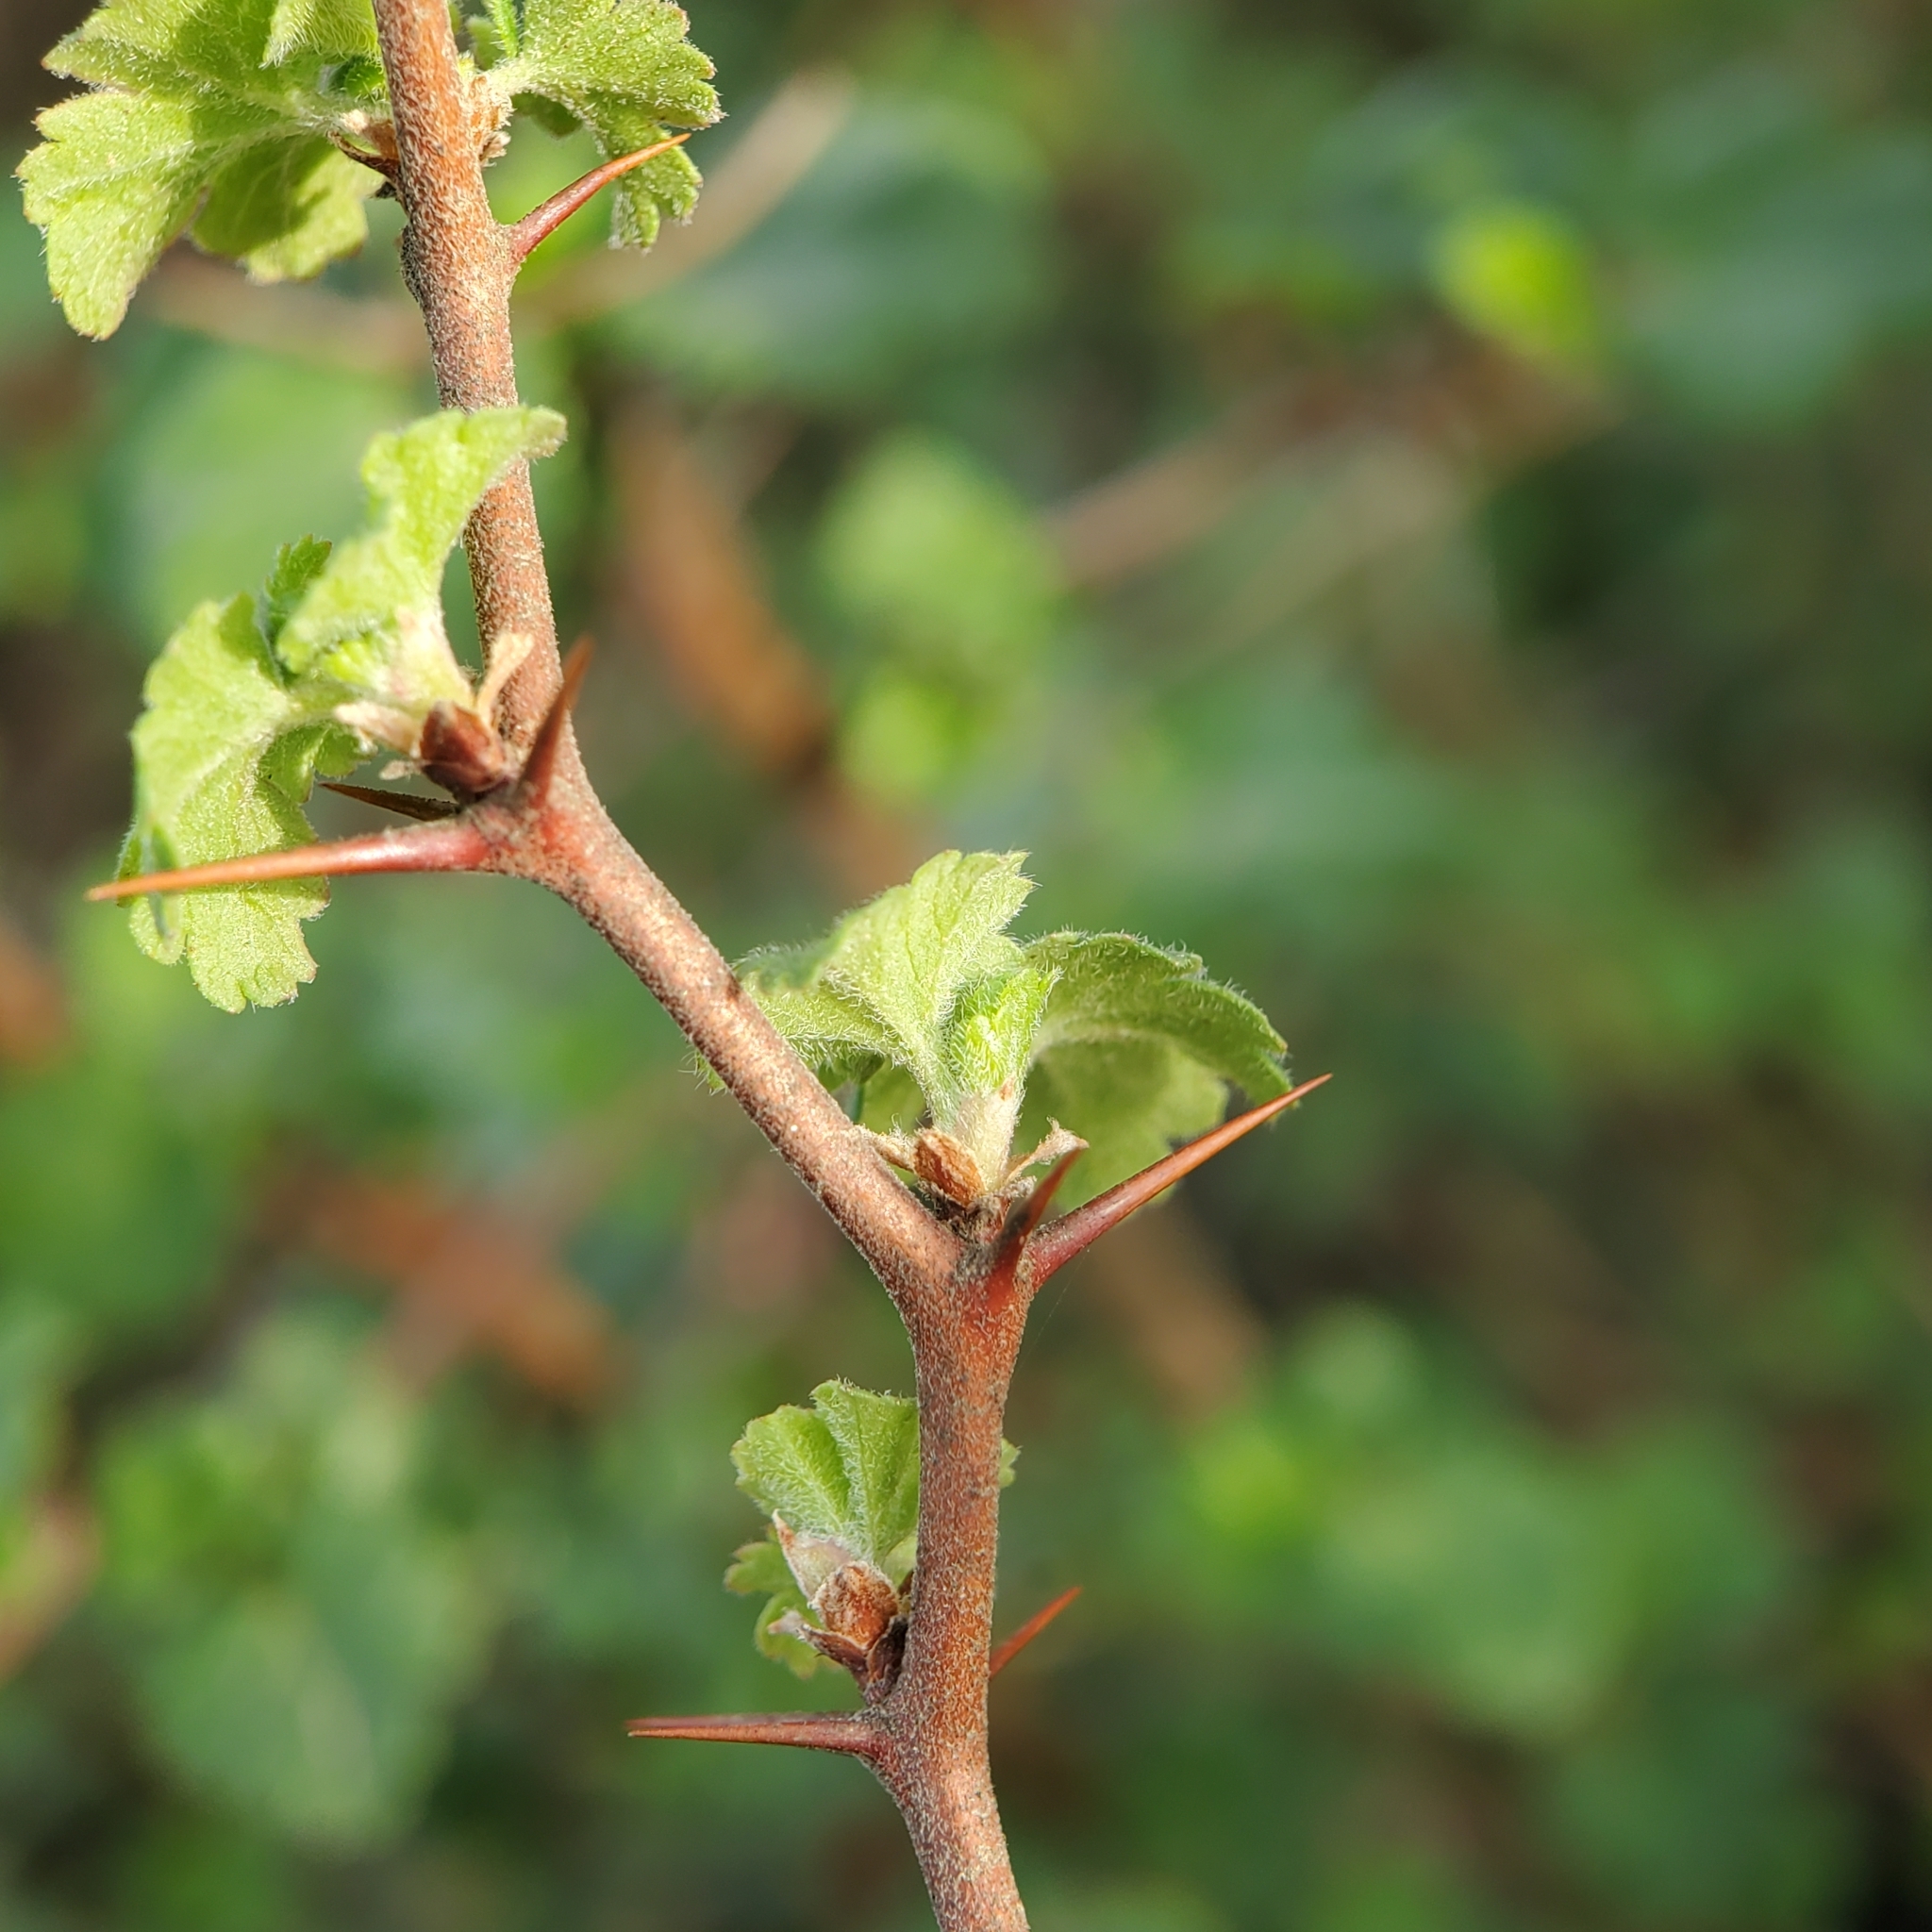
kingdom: Plantae
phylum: Tracheophyta
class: Magnoliopsida
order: Saxifragales
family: Grossulariaceae
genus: Ribes
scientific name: Ribes californicum
